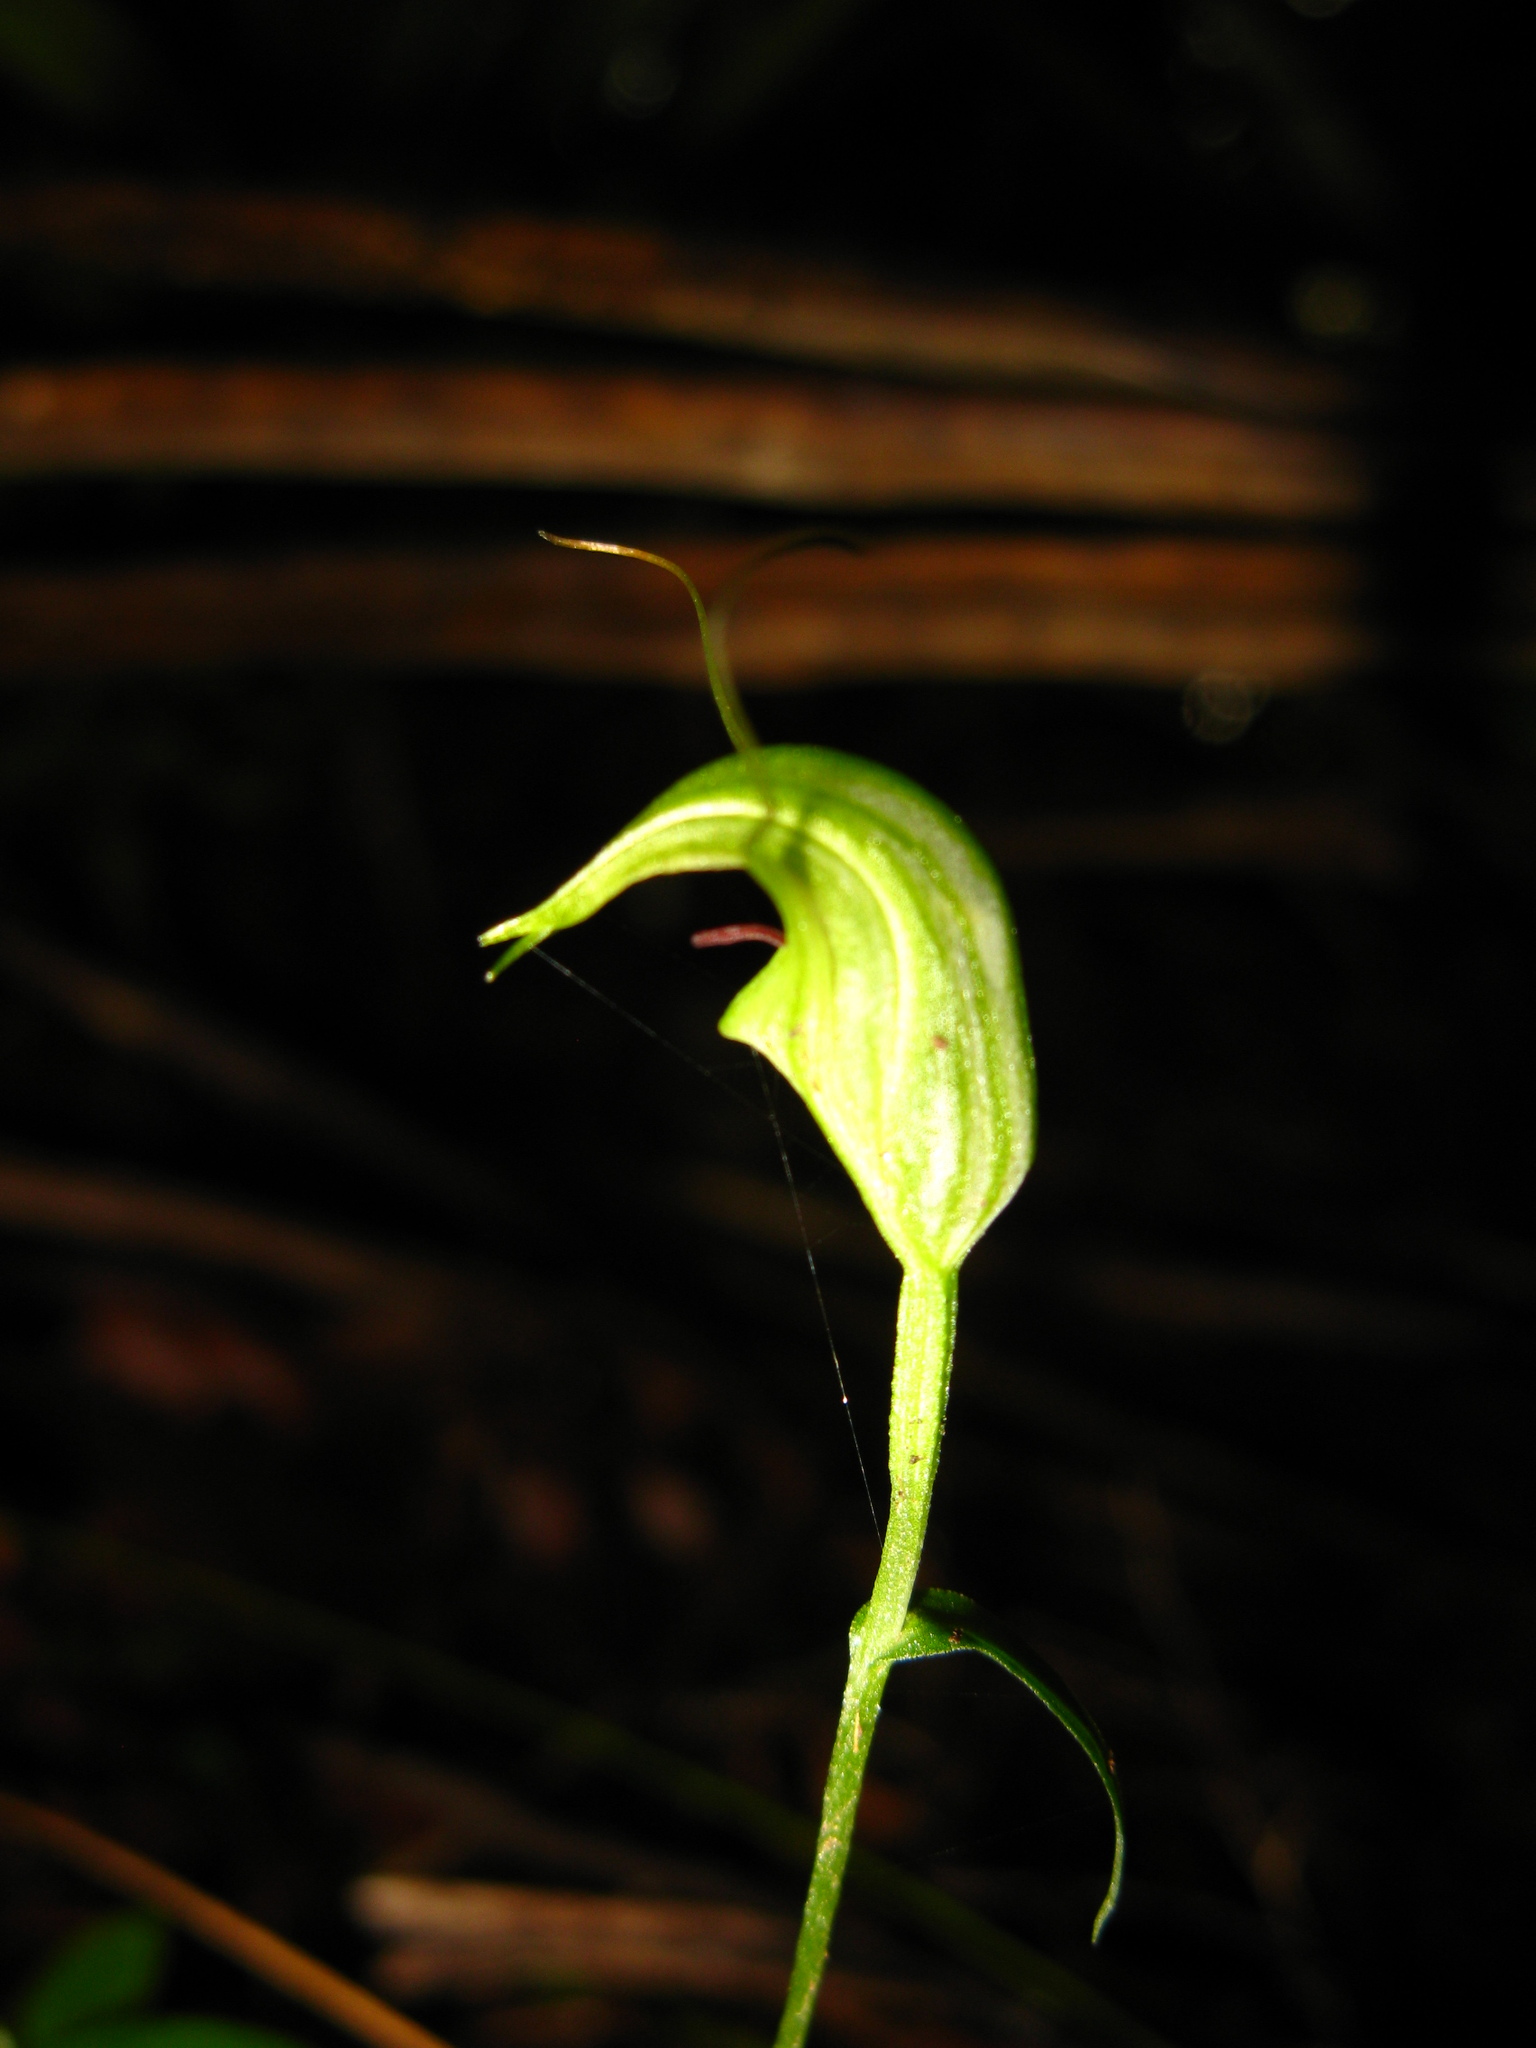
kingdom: Plantae
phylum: Tracheophyta
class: Liliopsida
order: Asparagales
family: Orchidaceae
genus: Pterostylis
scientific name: Pterostylis trullifolia
